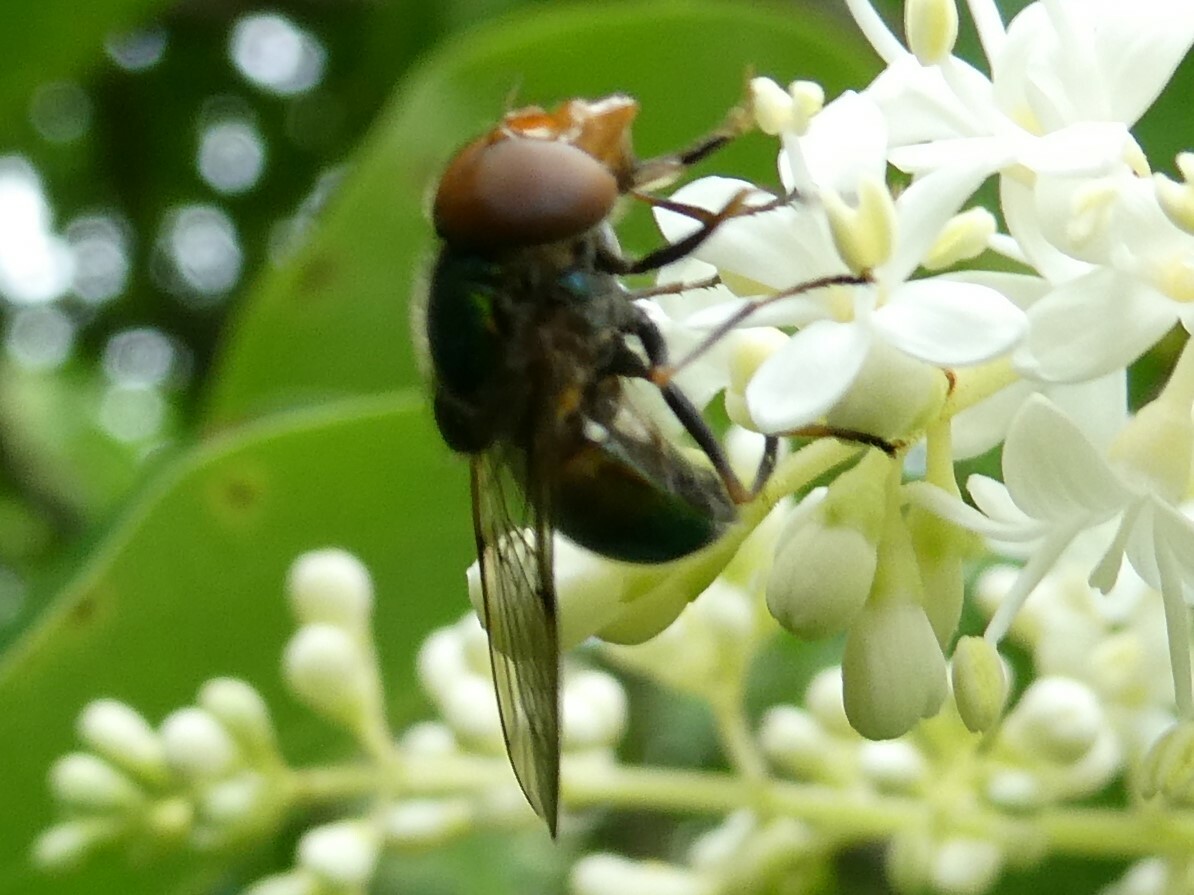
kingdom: Animalia
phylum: Arthropoda
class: Insecta
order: Diptera
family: Syrphidae
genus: Copestylum
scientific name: Copestylum vesicularium
